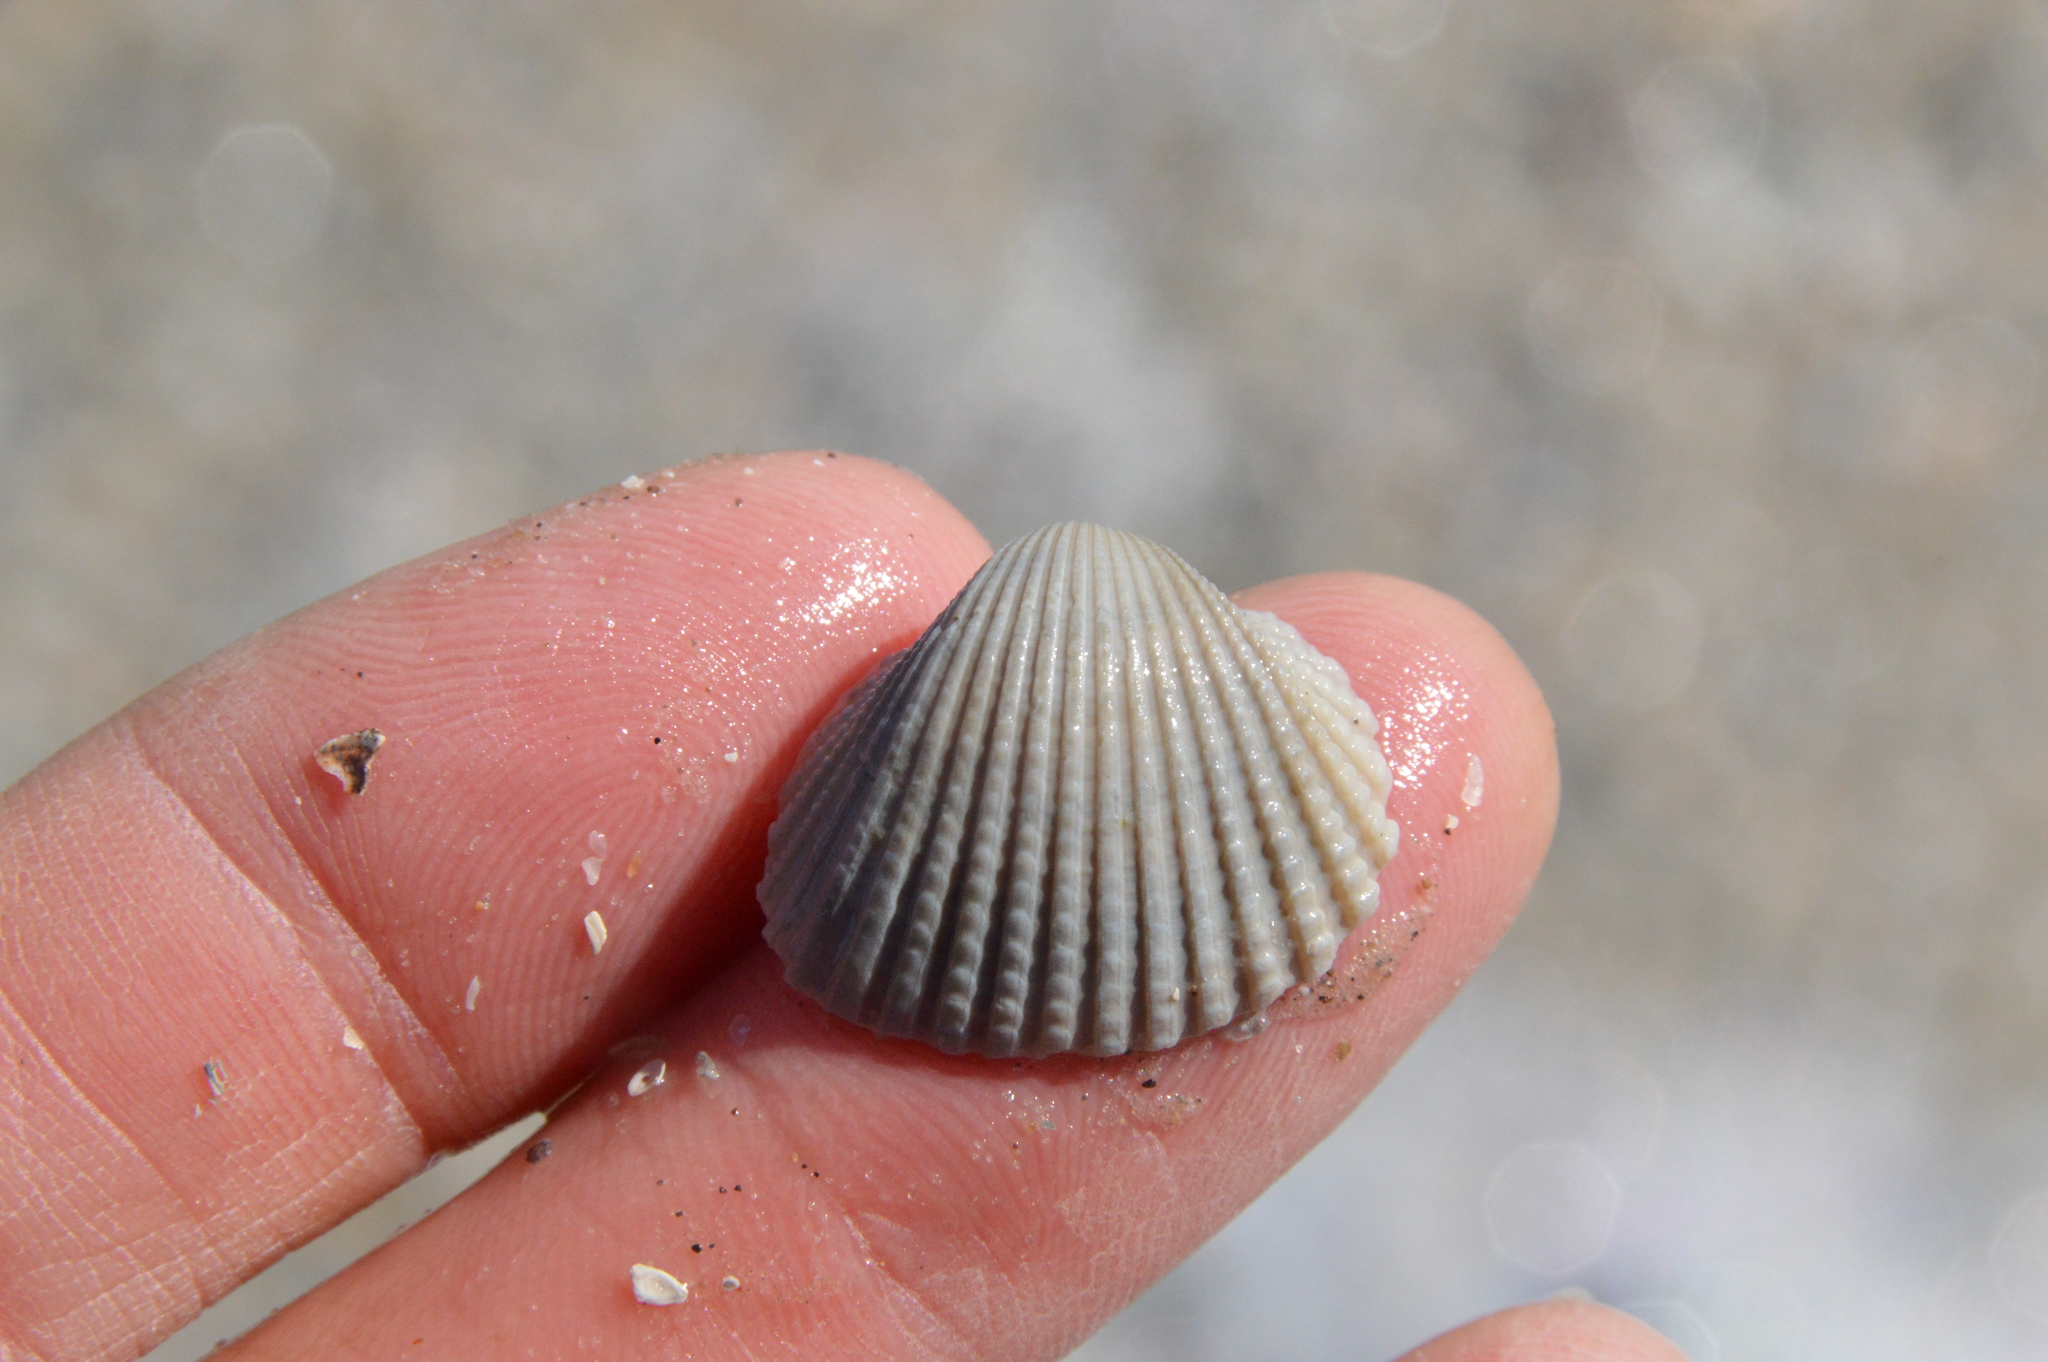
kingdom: Animalia
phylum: Mollusca
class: Bivalvia
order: Arcida
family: Arcidae
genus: Anadara
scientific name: Anadara brasiliana
